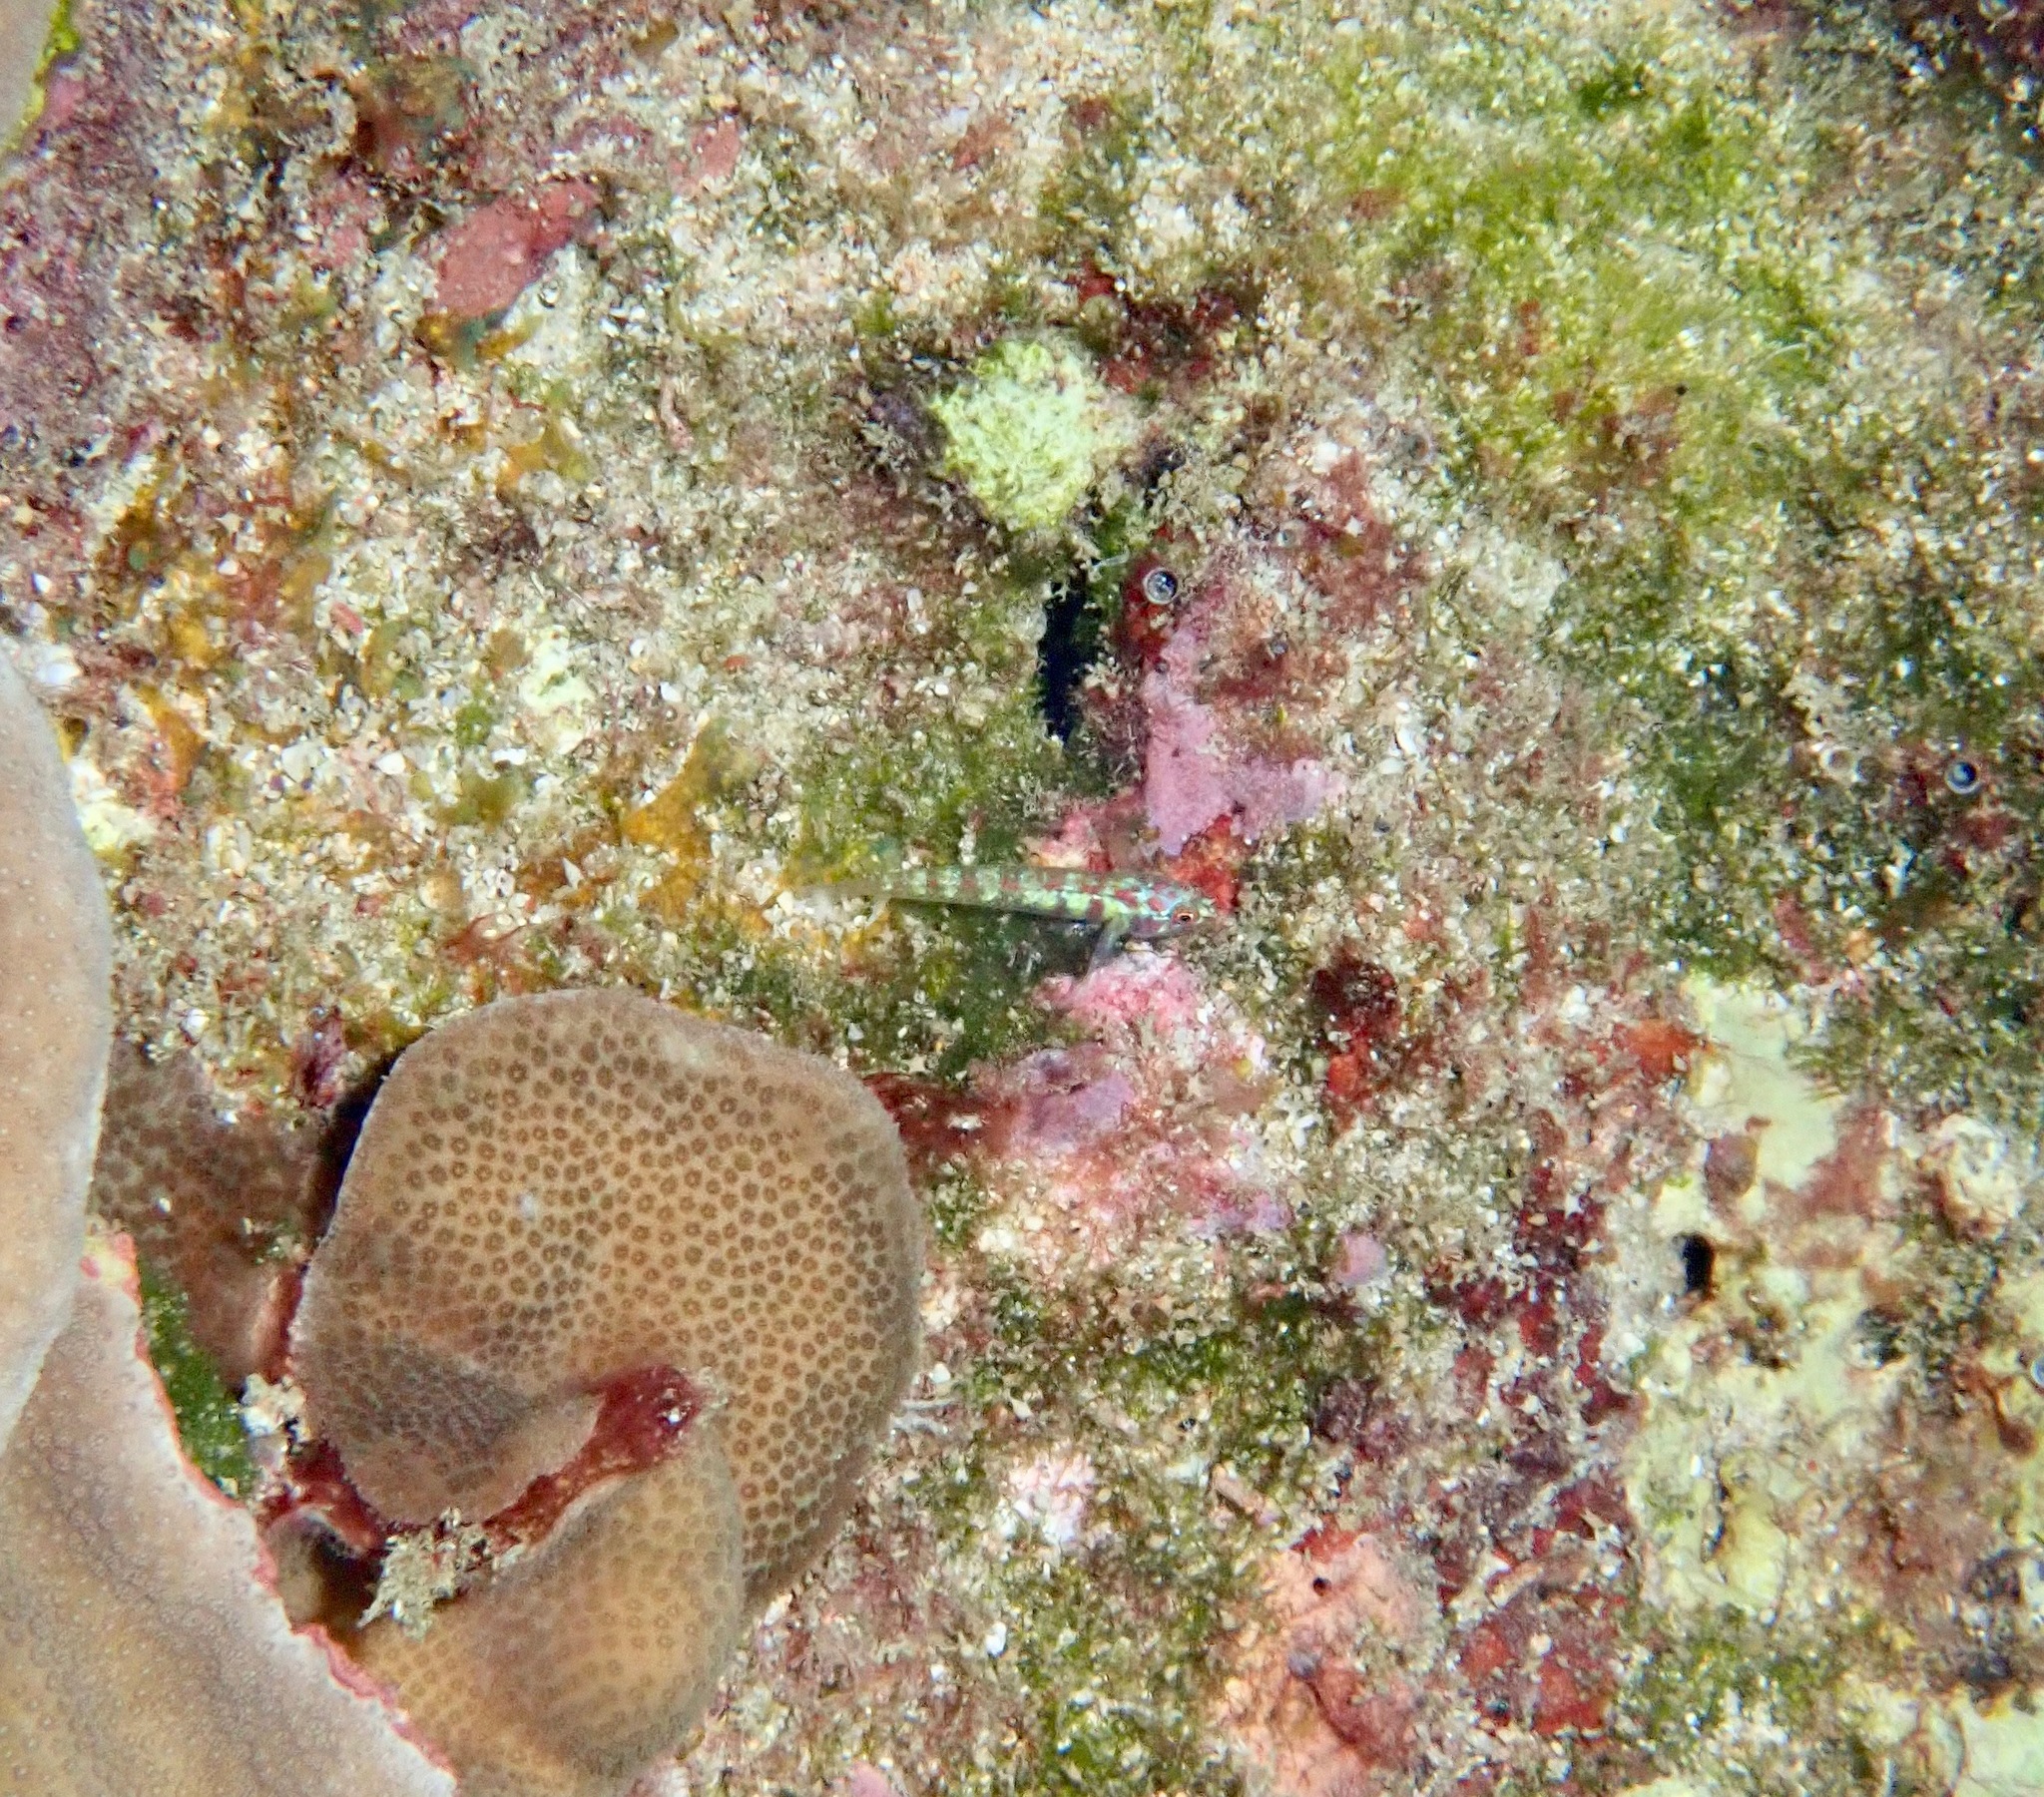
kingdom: Animalia
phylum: Chordata
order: Perciformes
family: Gobiidae
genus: Eviota
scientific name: Eviota teresae
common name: Terry's dwarfgoby
